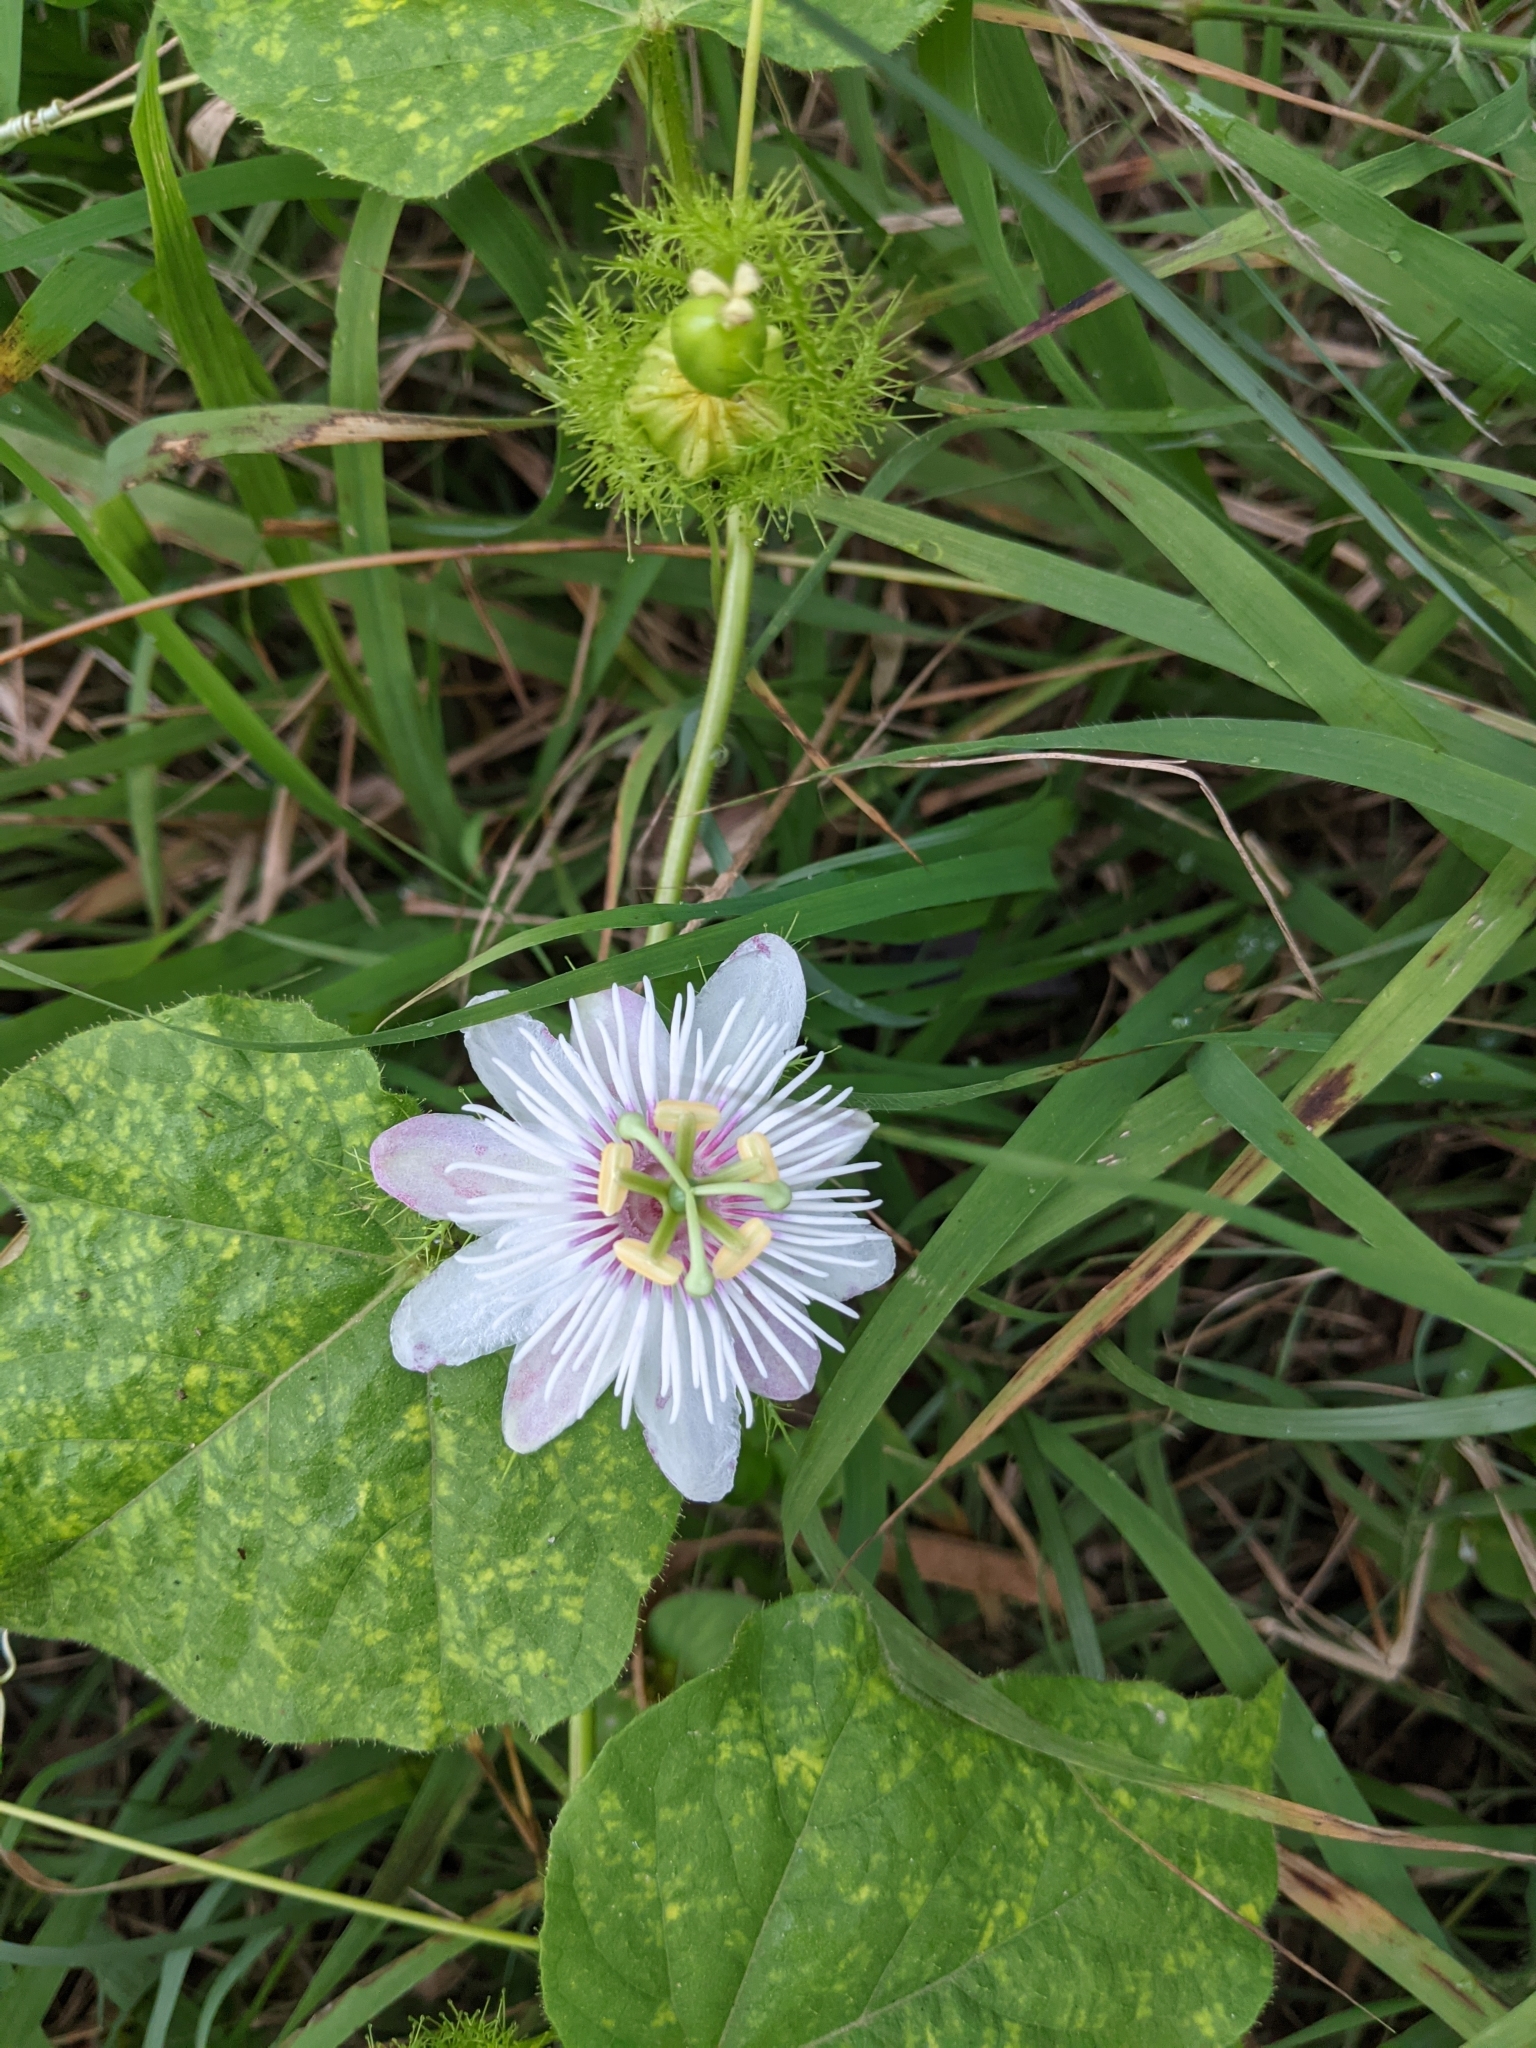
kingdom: Plantae
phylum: Tracheophyta
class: Magnoliopsida
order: Malpighiales
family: Passifloraceae
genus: Passiflora
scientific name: Passiflora vesicaria
